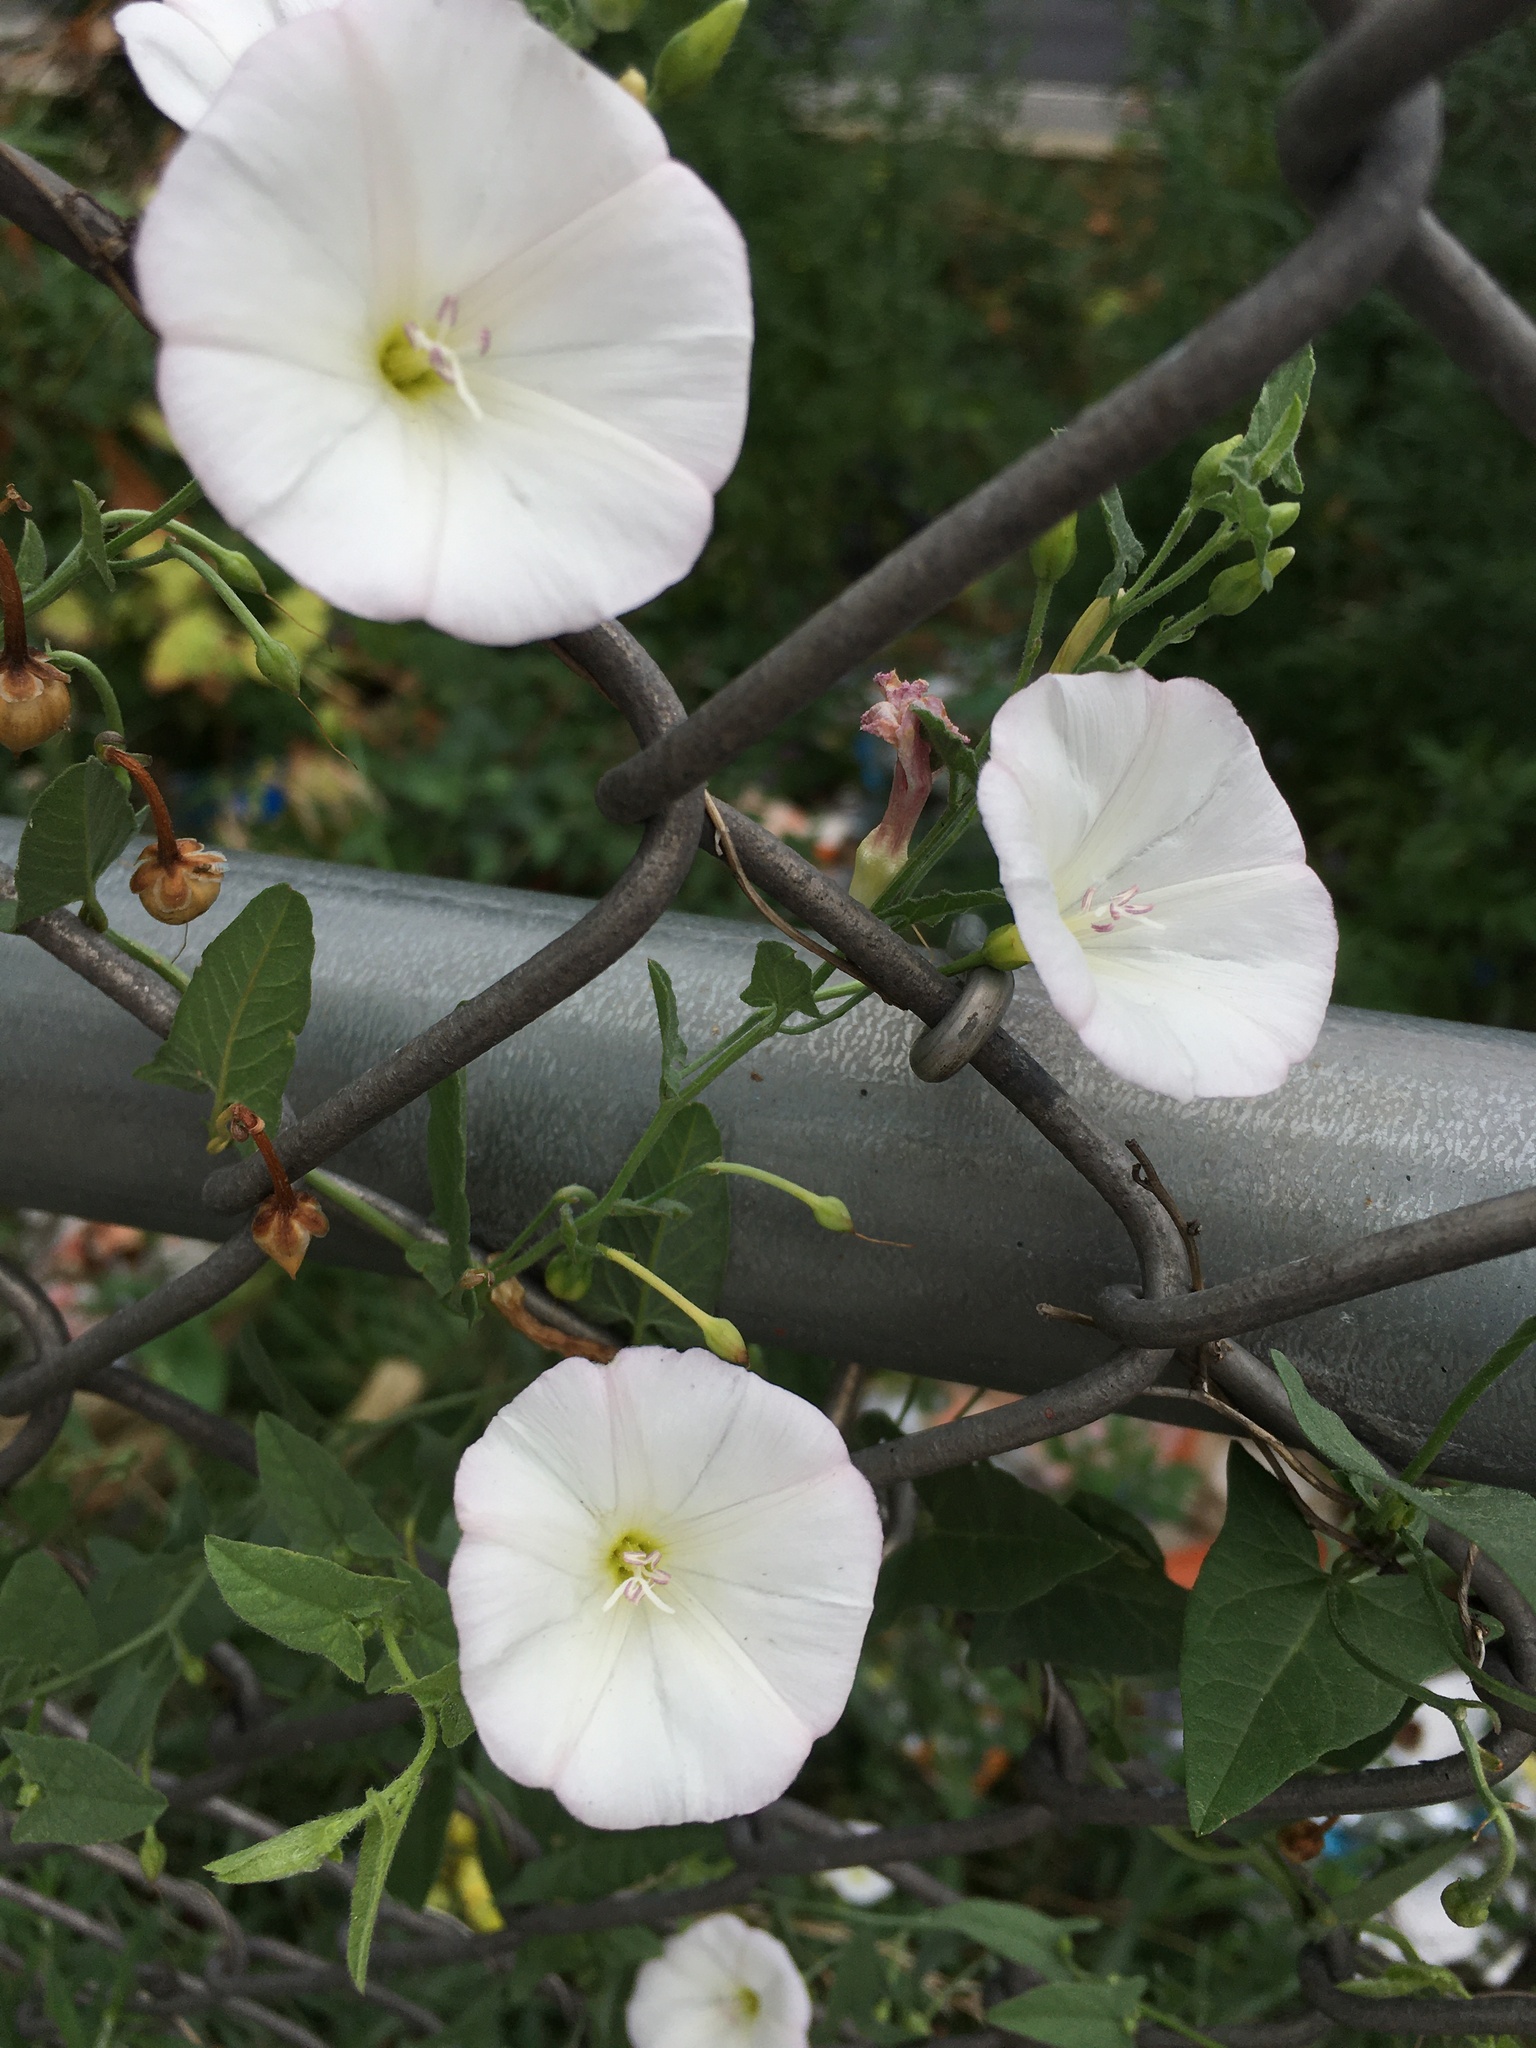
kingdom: Plantae
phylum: Tracheophyta
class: Magnoliopsida
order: Solanales
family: Convolvulaceae
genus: Convolvulus
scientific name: Convolvulus arvensis
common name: Field bindweed
